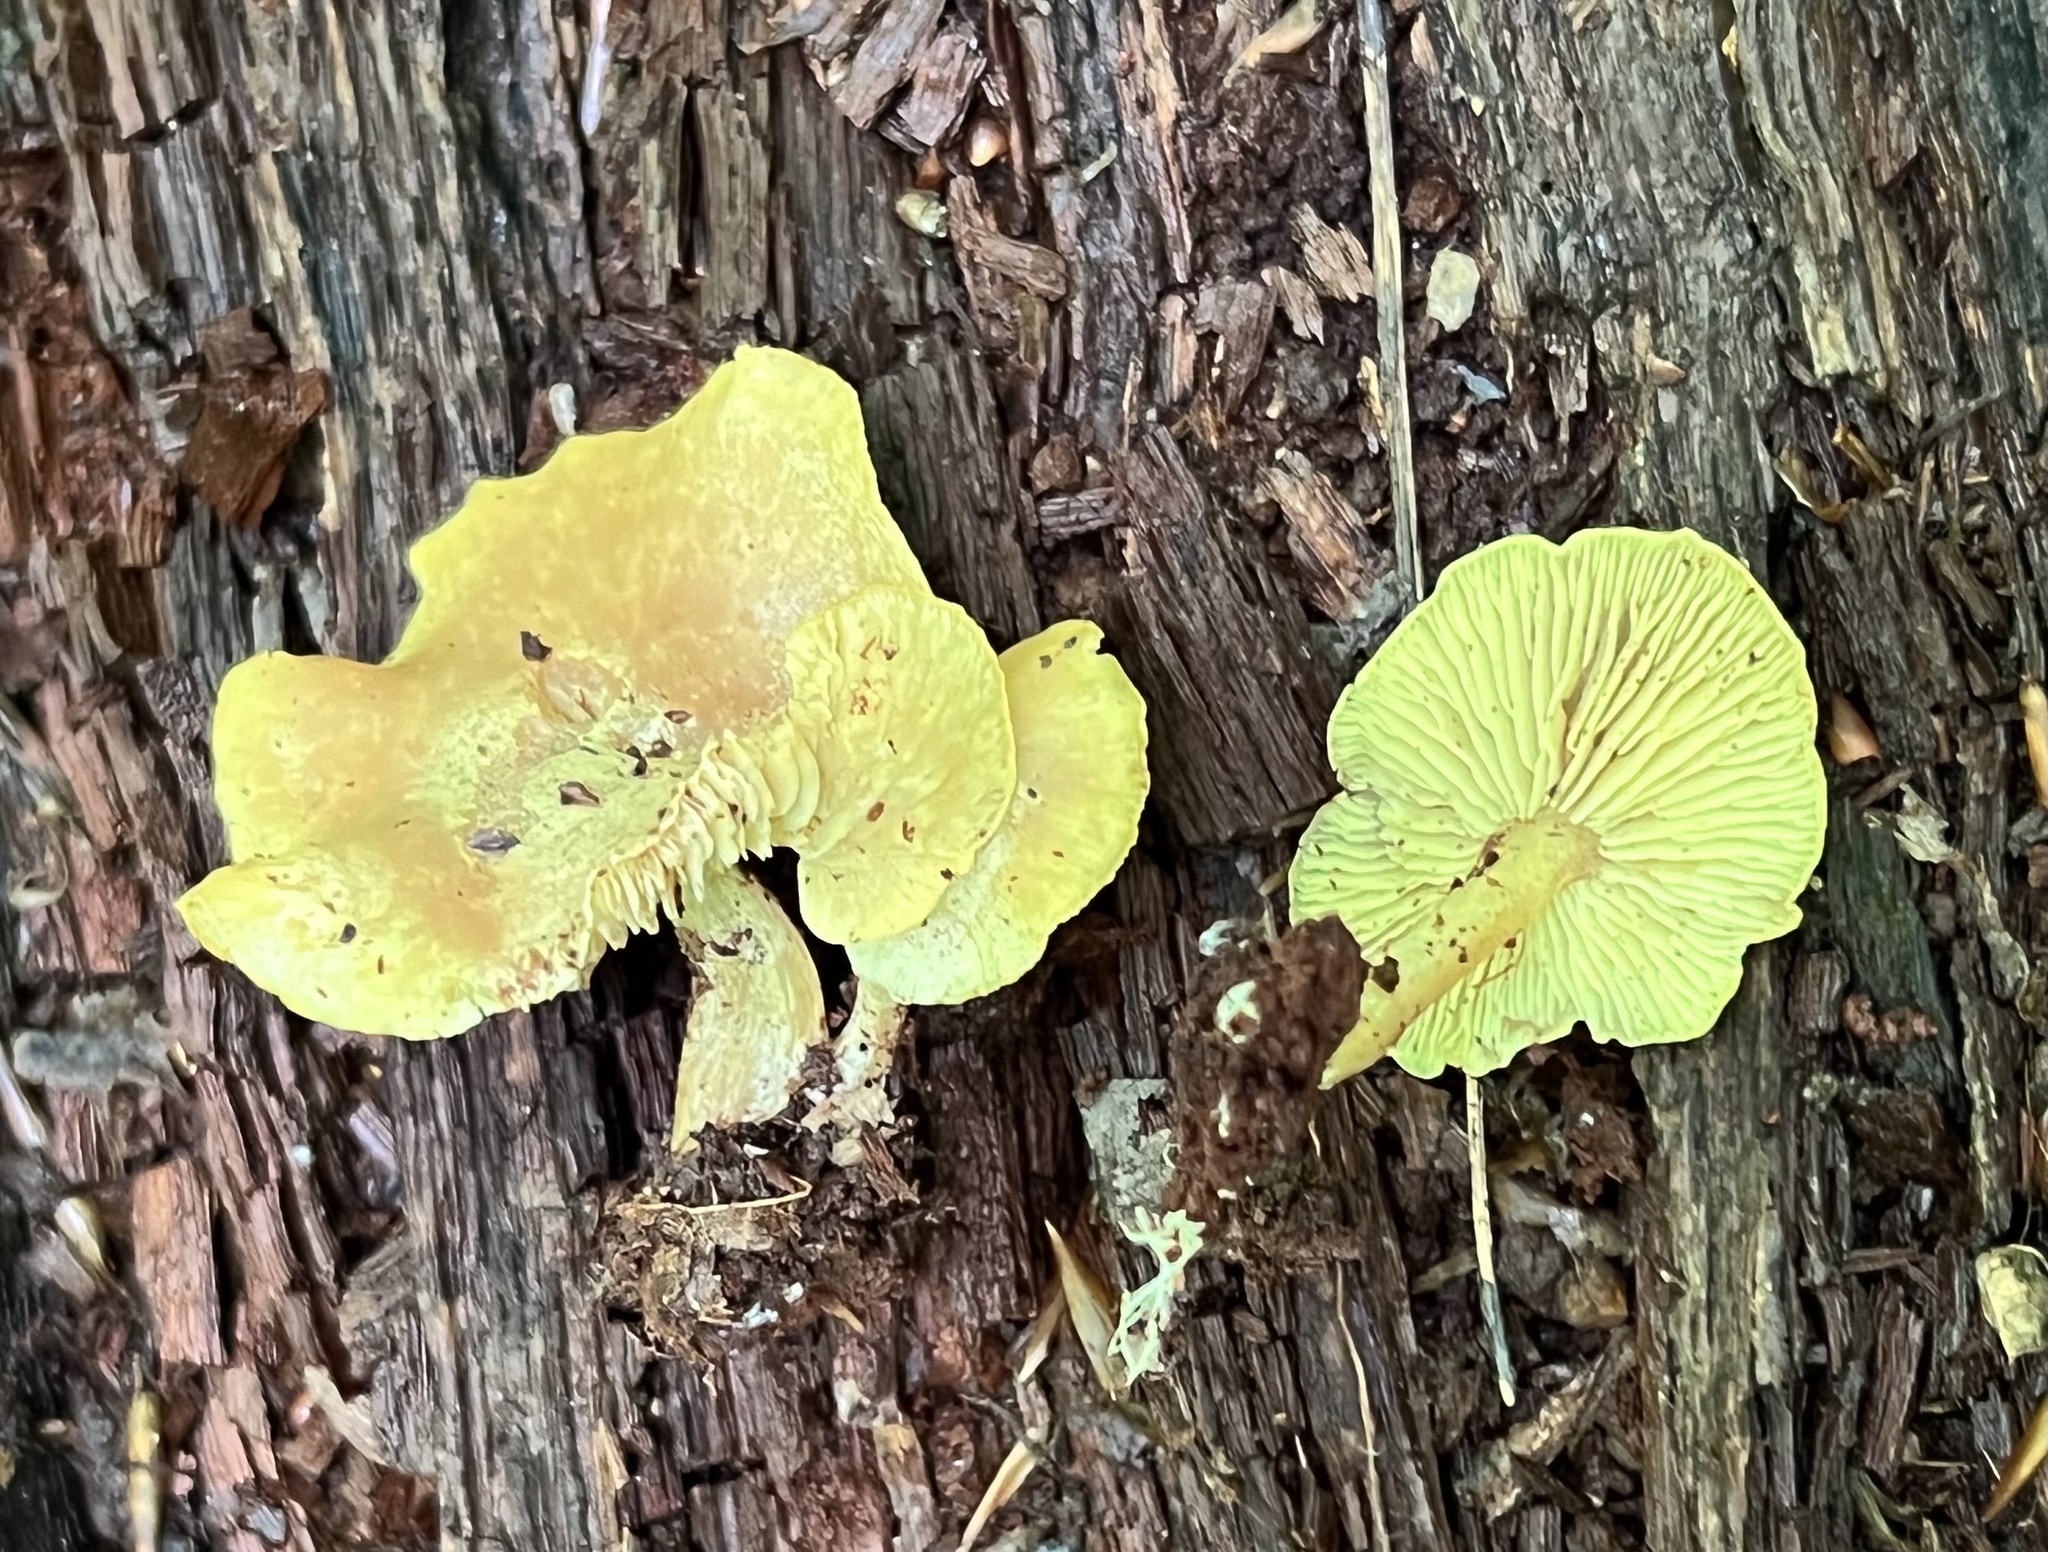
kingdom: Fungi
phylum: Basidiomycota
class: Agaricomycetes
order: Agaricales
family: Callistosporiaceae
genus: Callistosporium
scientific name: Callistosporium pinicola
